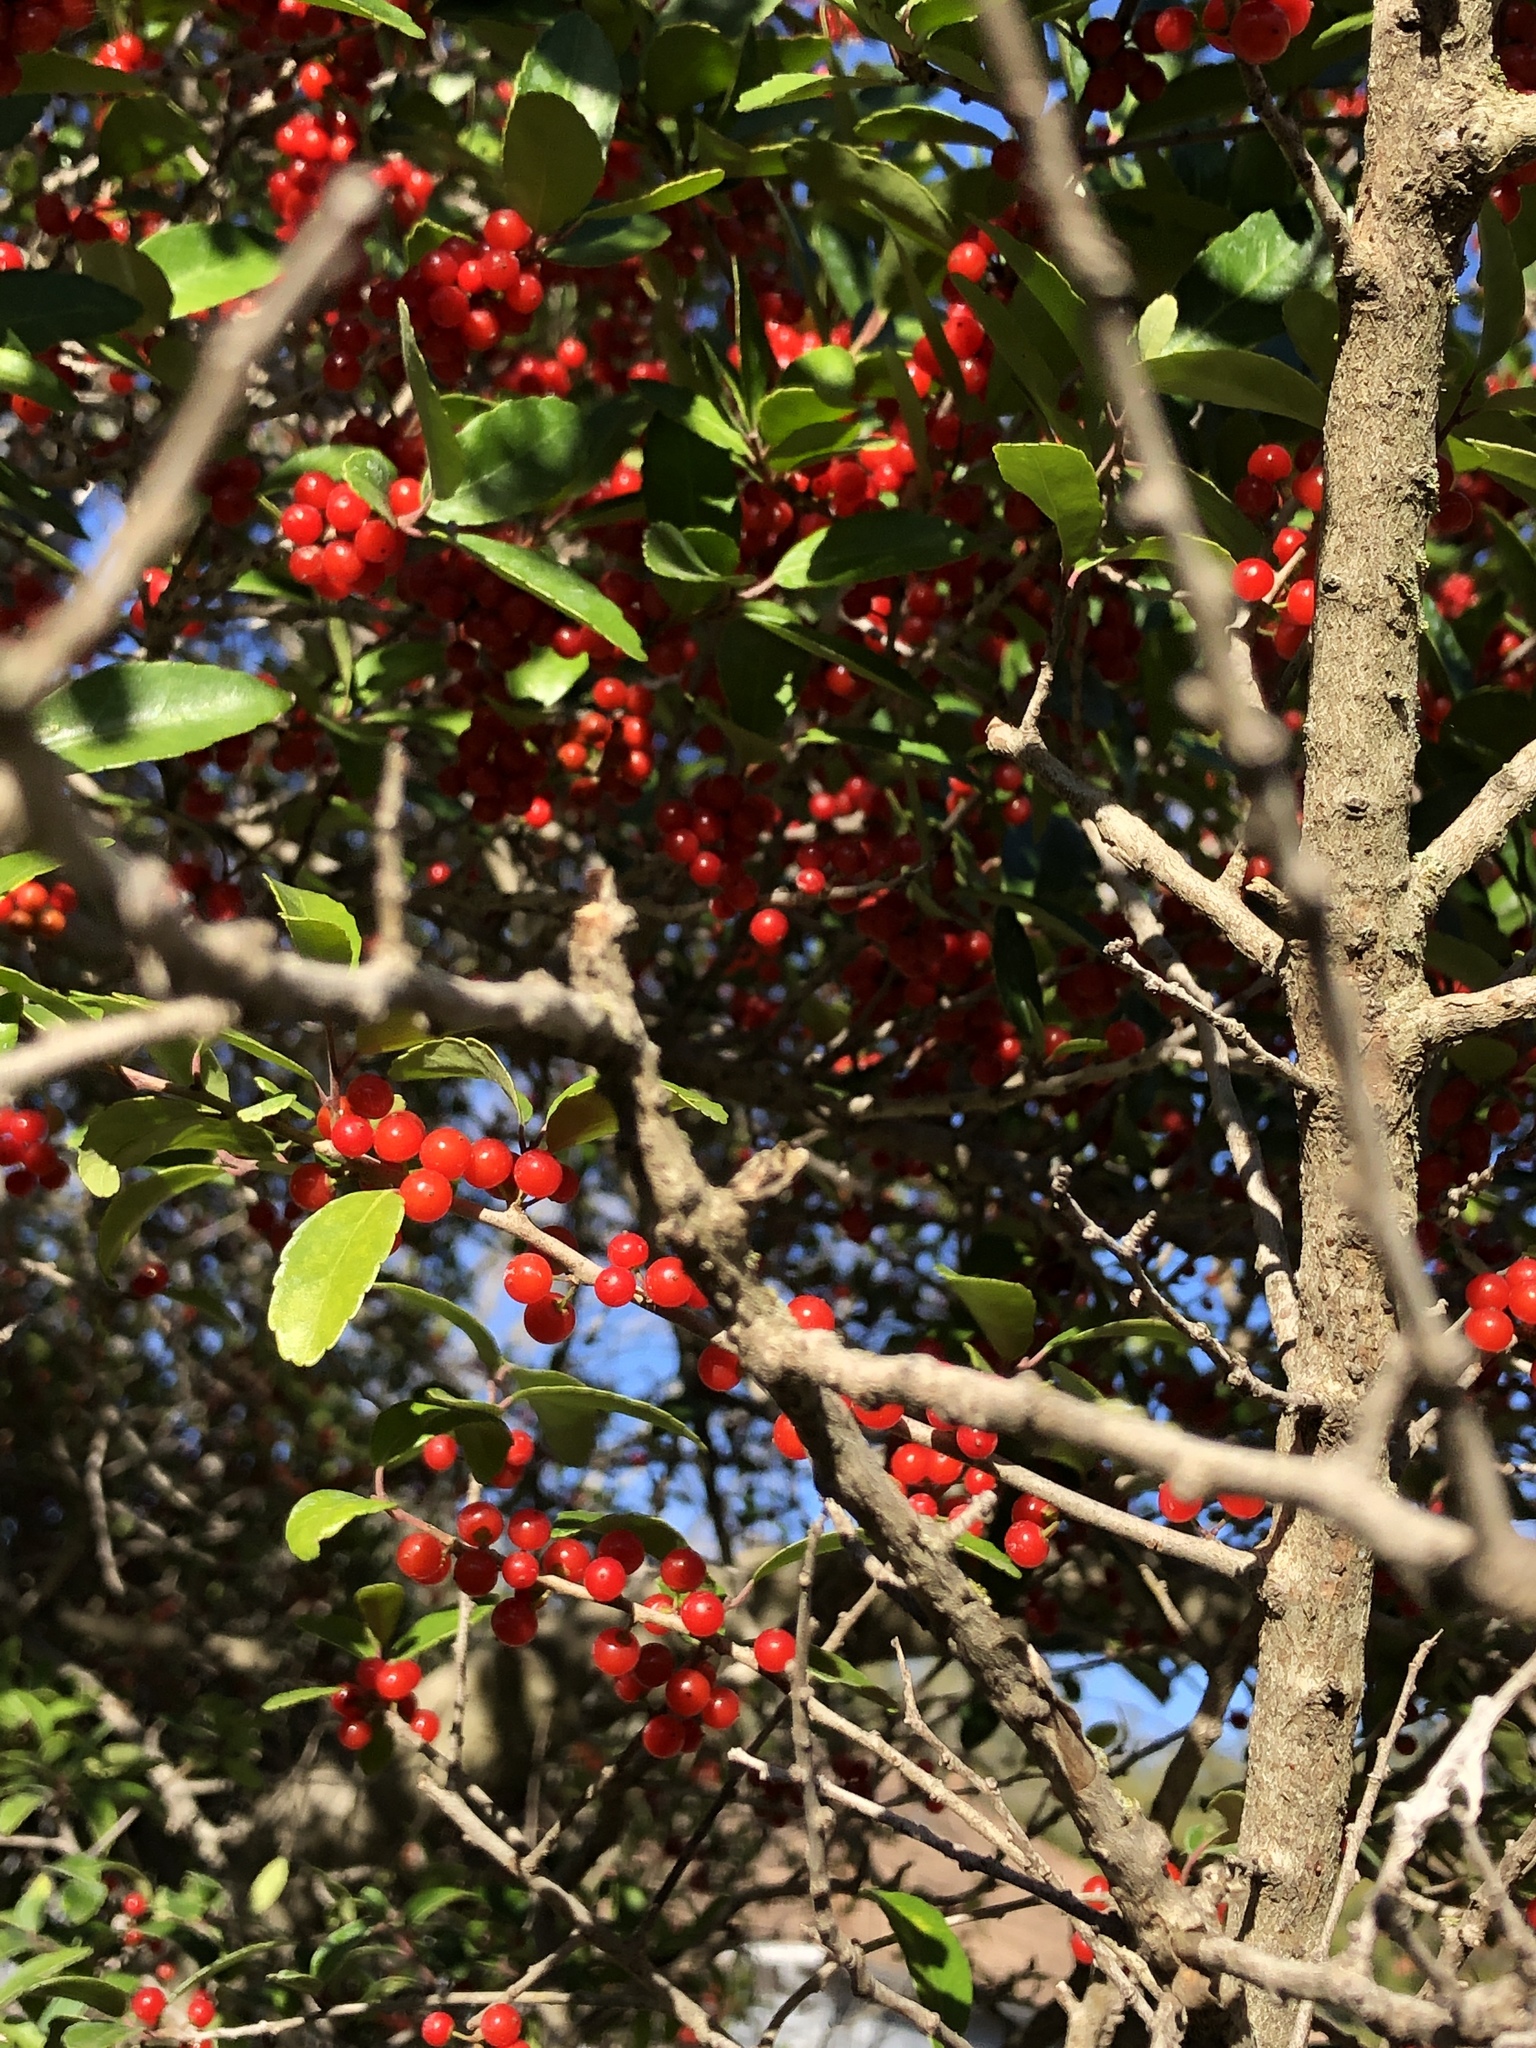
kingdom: Plantae
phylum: Tracheophyta
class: Magnoliopsida
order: Aquifoliales
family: Aquifoliaceae
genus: Ilex
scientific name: Ilex vomitoria
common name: Yaupon holly
